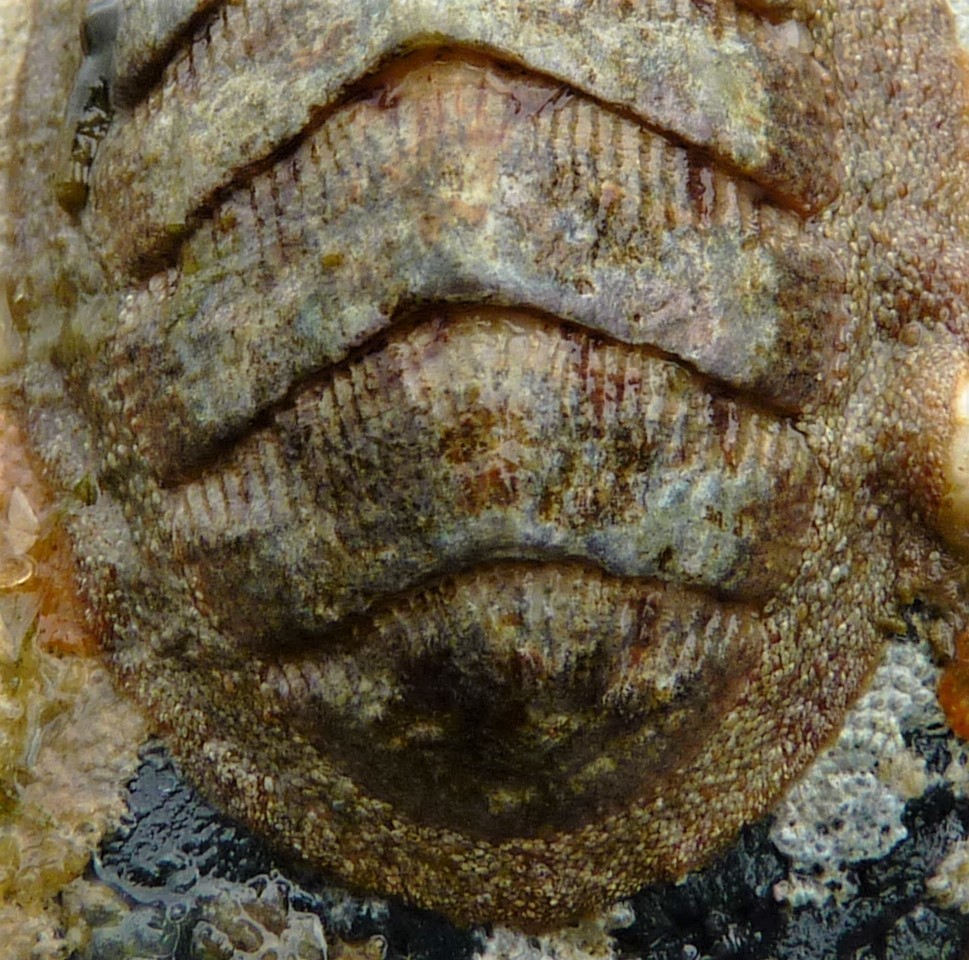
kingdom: Animalia
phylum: Mollusca
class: Polyplacophora
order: Chitonida
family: Ischnochitonidae
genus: Lepidozona
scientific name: Lepidozona mertensii
